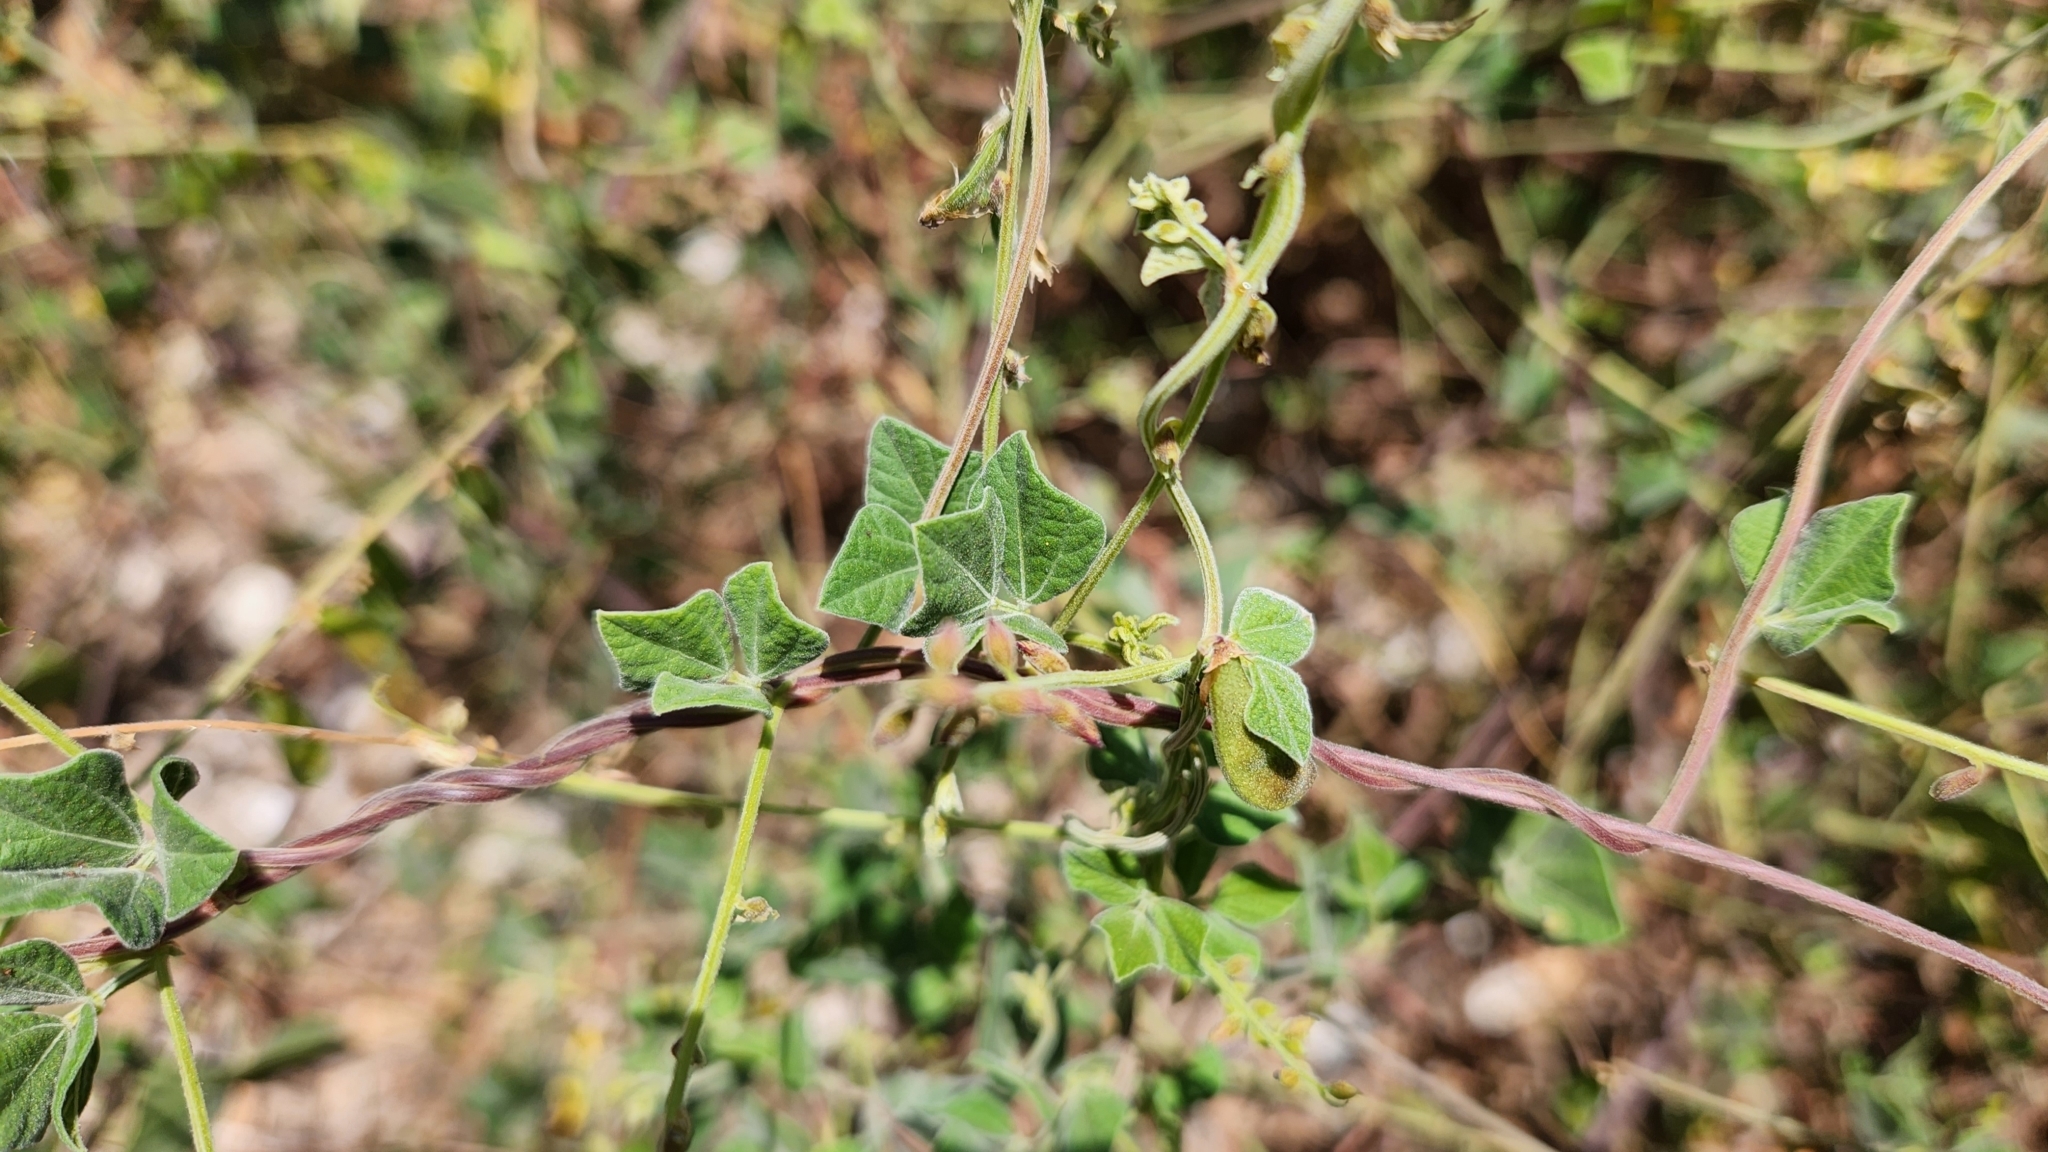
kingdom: Plantae
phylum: Tracheophyta
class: Magnoliopsida
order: Fabales
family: Fabaceae
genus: Rhynchosia
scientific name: Rhynchosia minima
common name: Least snoutbean
